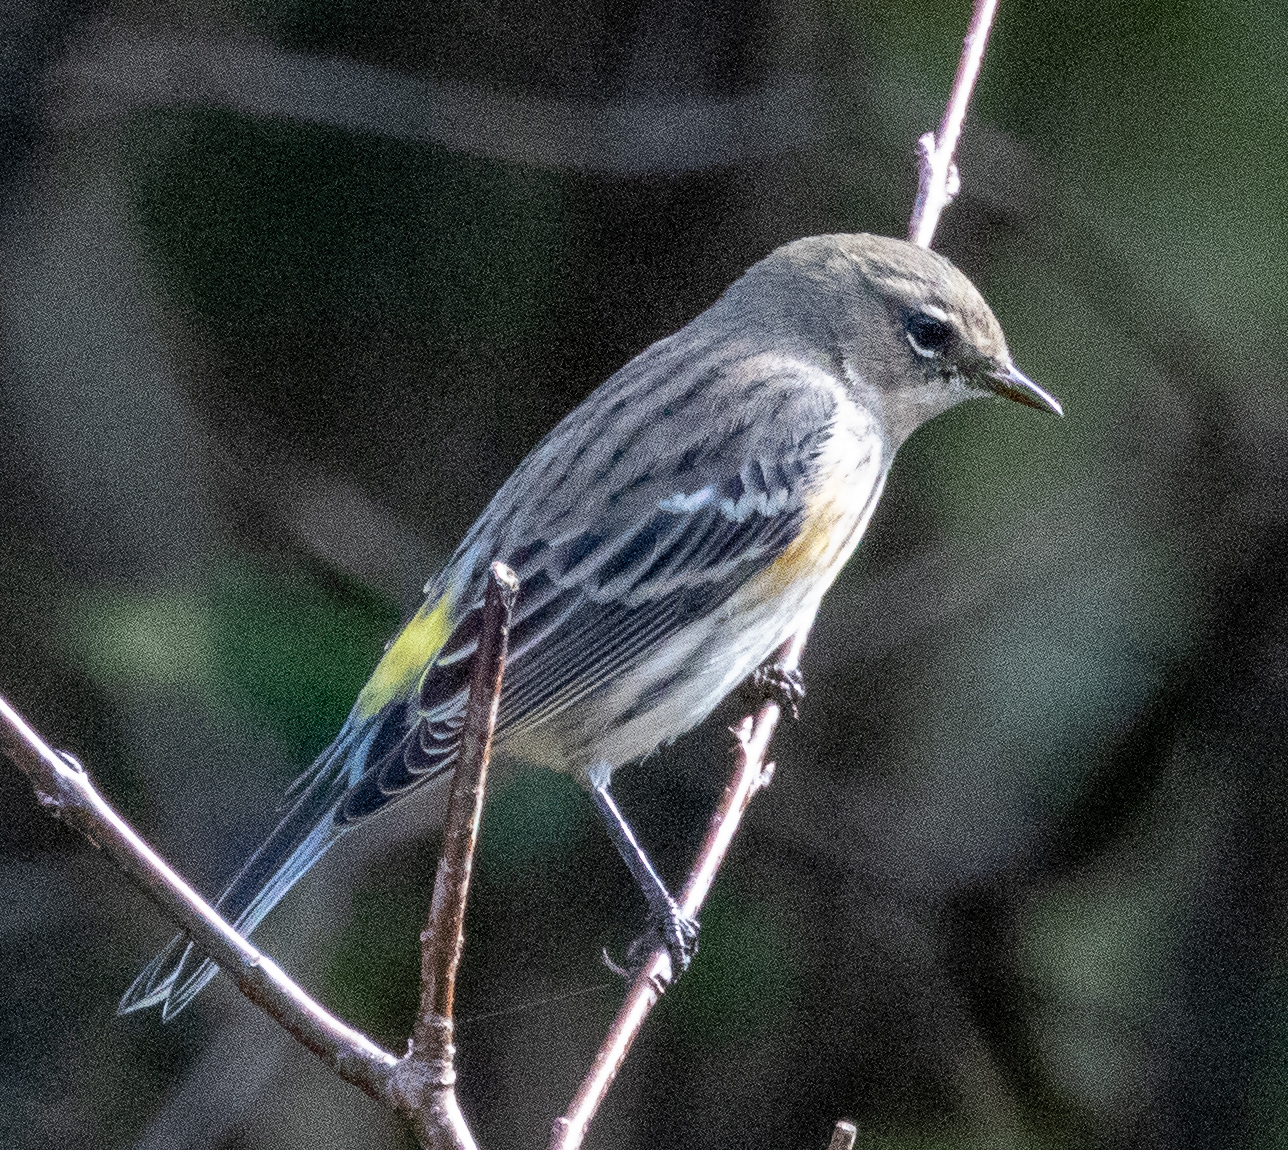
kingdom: Animalia
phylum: Chordata
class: Aves
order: Passeriformes
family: Parulidae
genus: Setophaga
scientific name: Setophaga coronata
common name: Myrtle warbler
